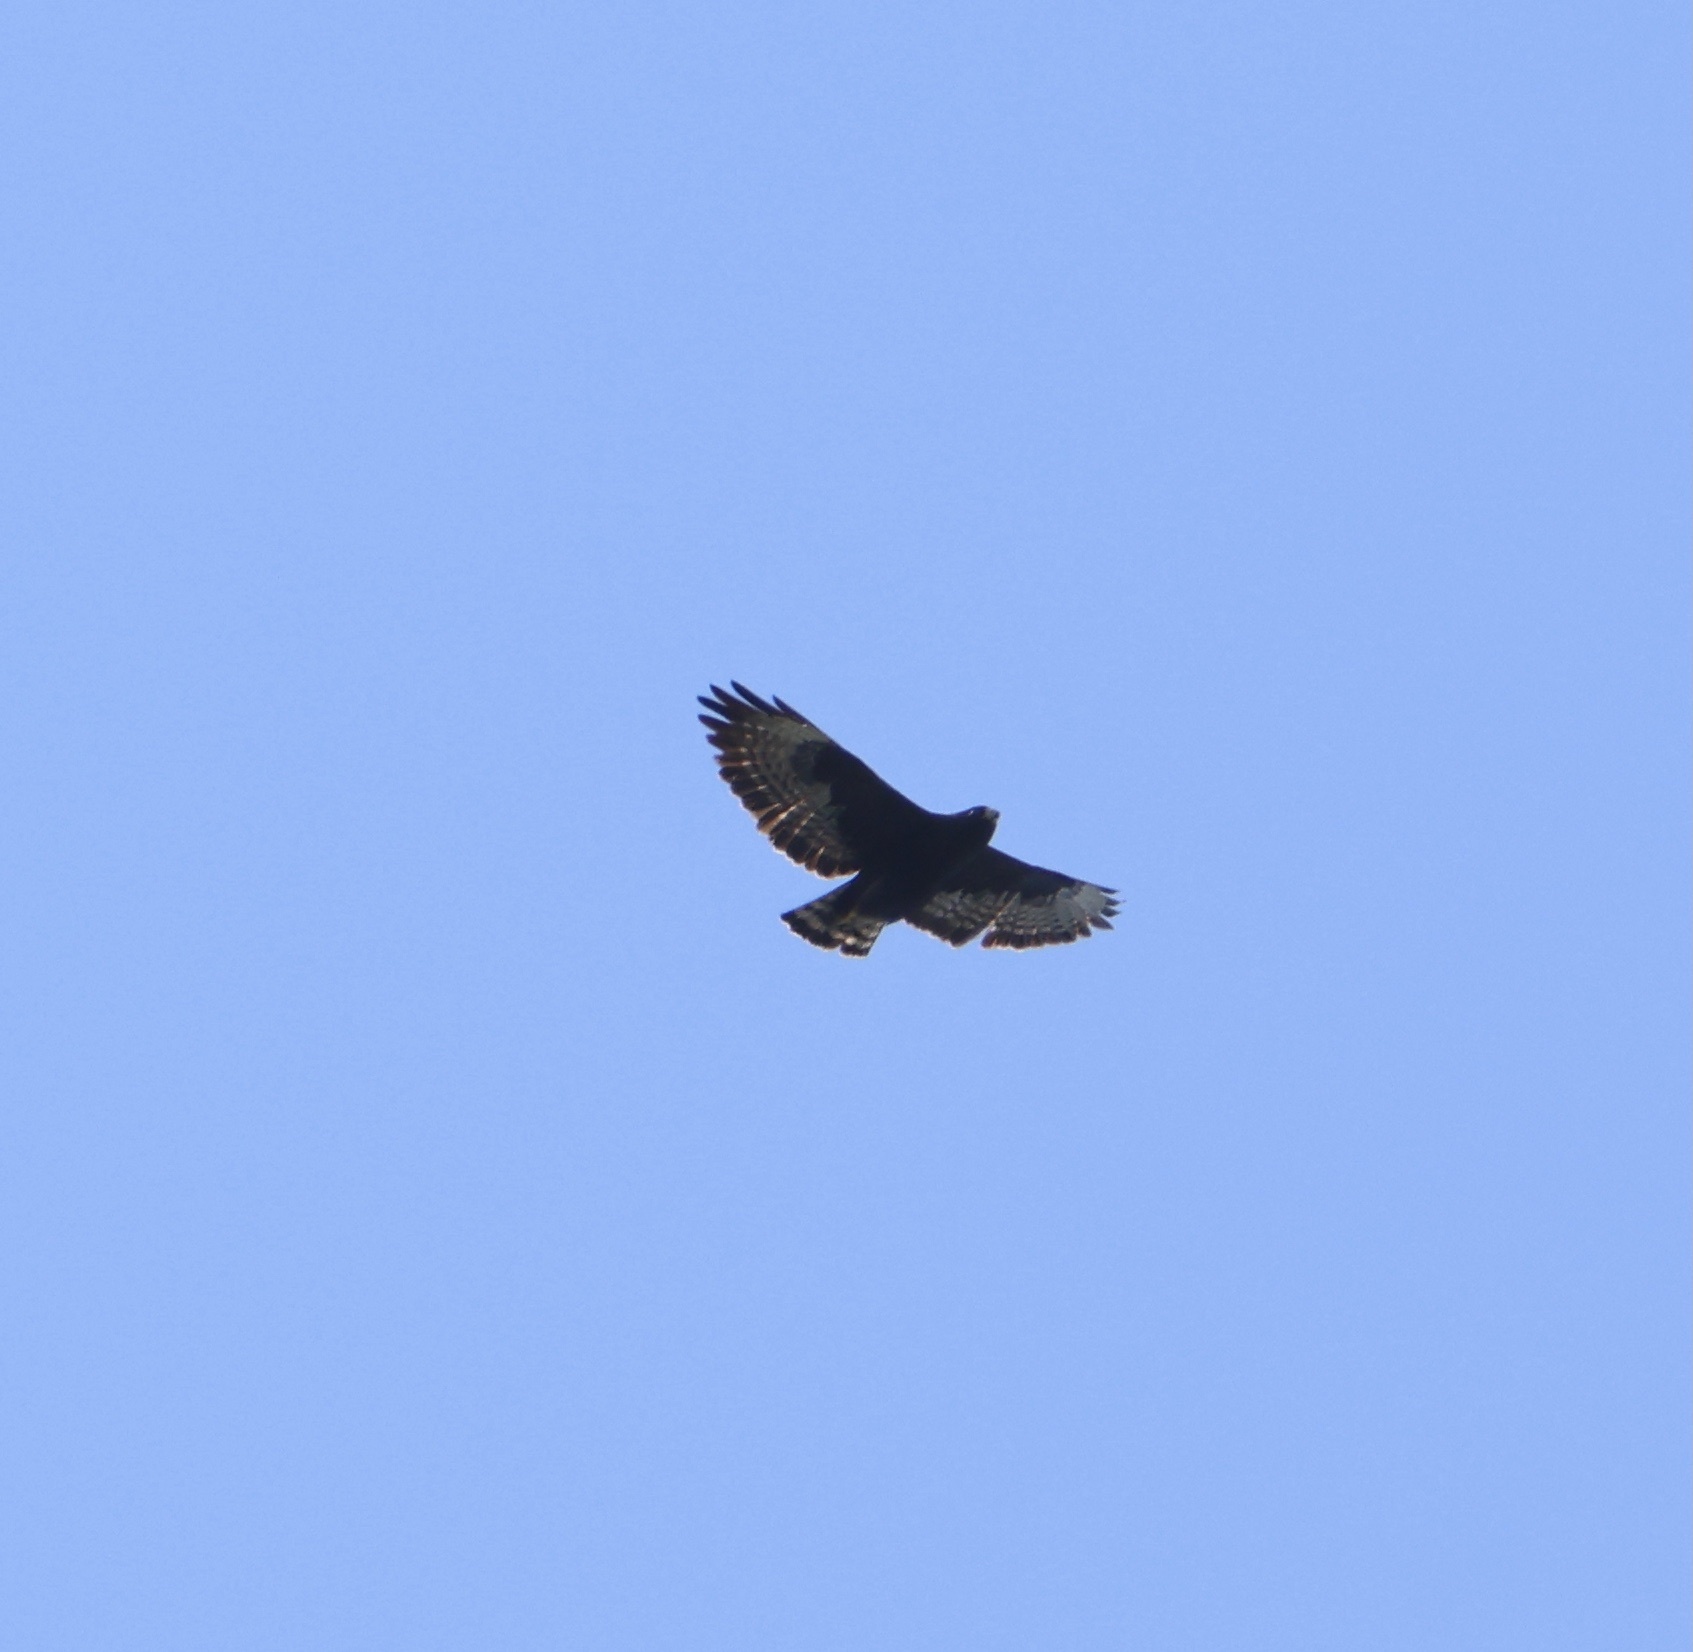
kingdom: Animalia
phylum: Chordata
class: Aves
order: Accipitriformes
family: Accipitridae
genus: Buteo
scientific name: Buteo brachyurus
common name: Short-tailed hawk
